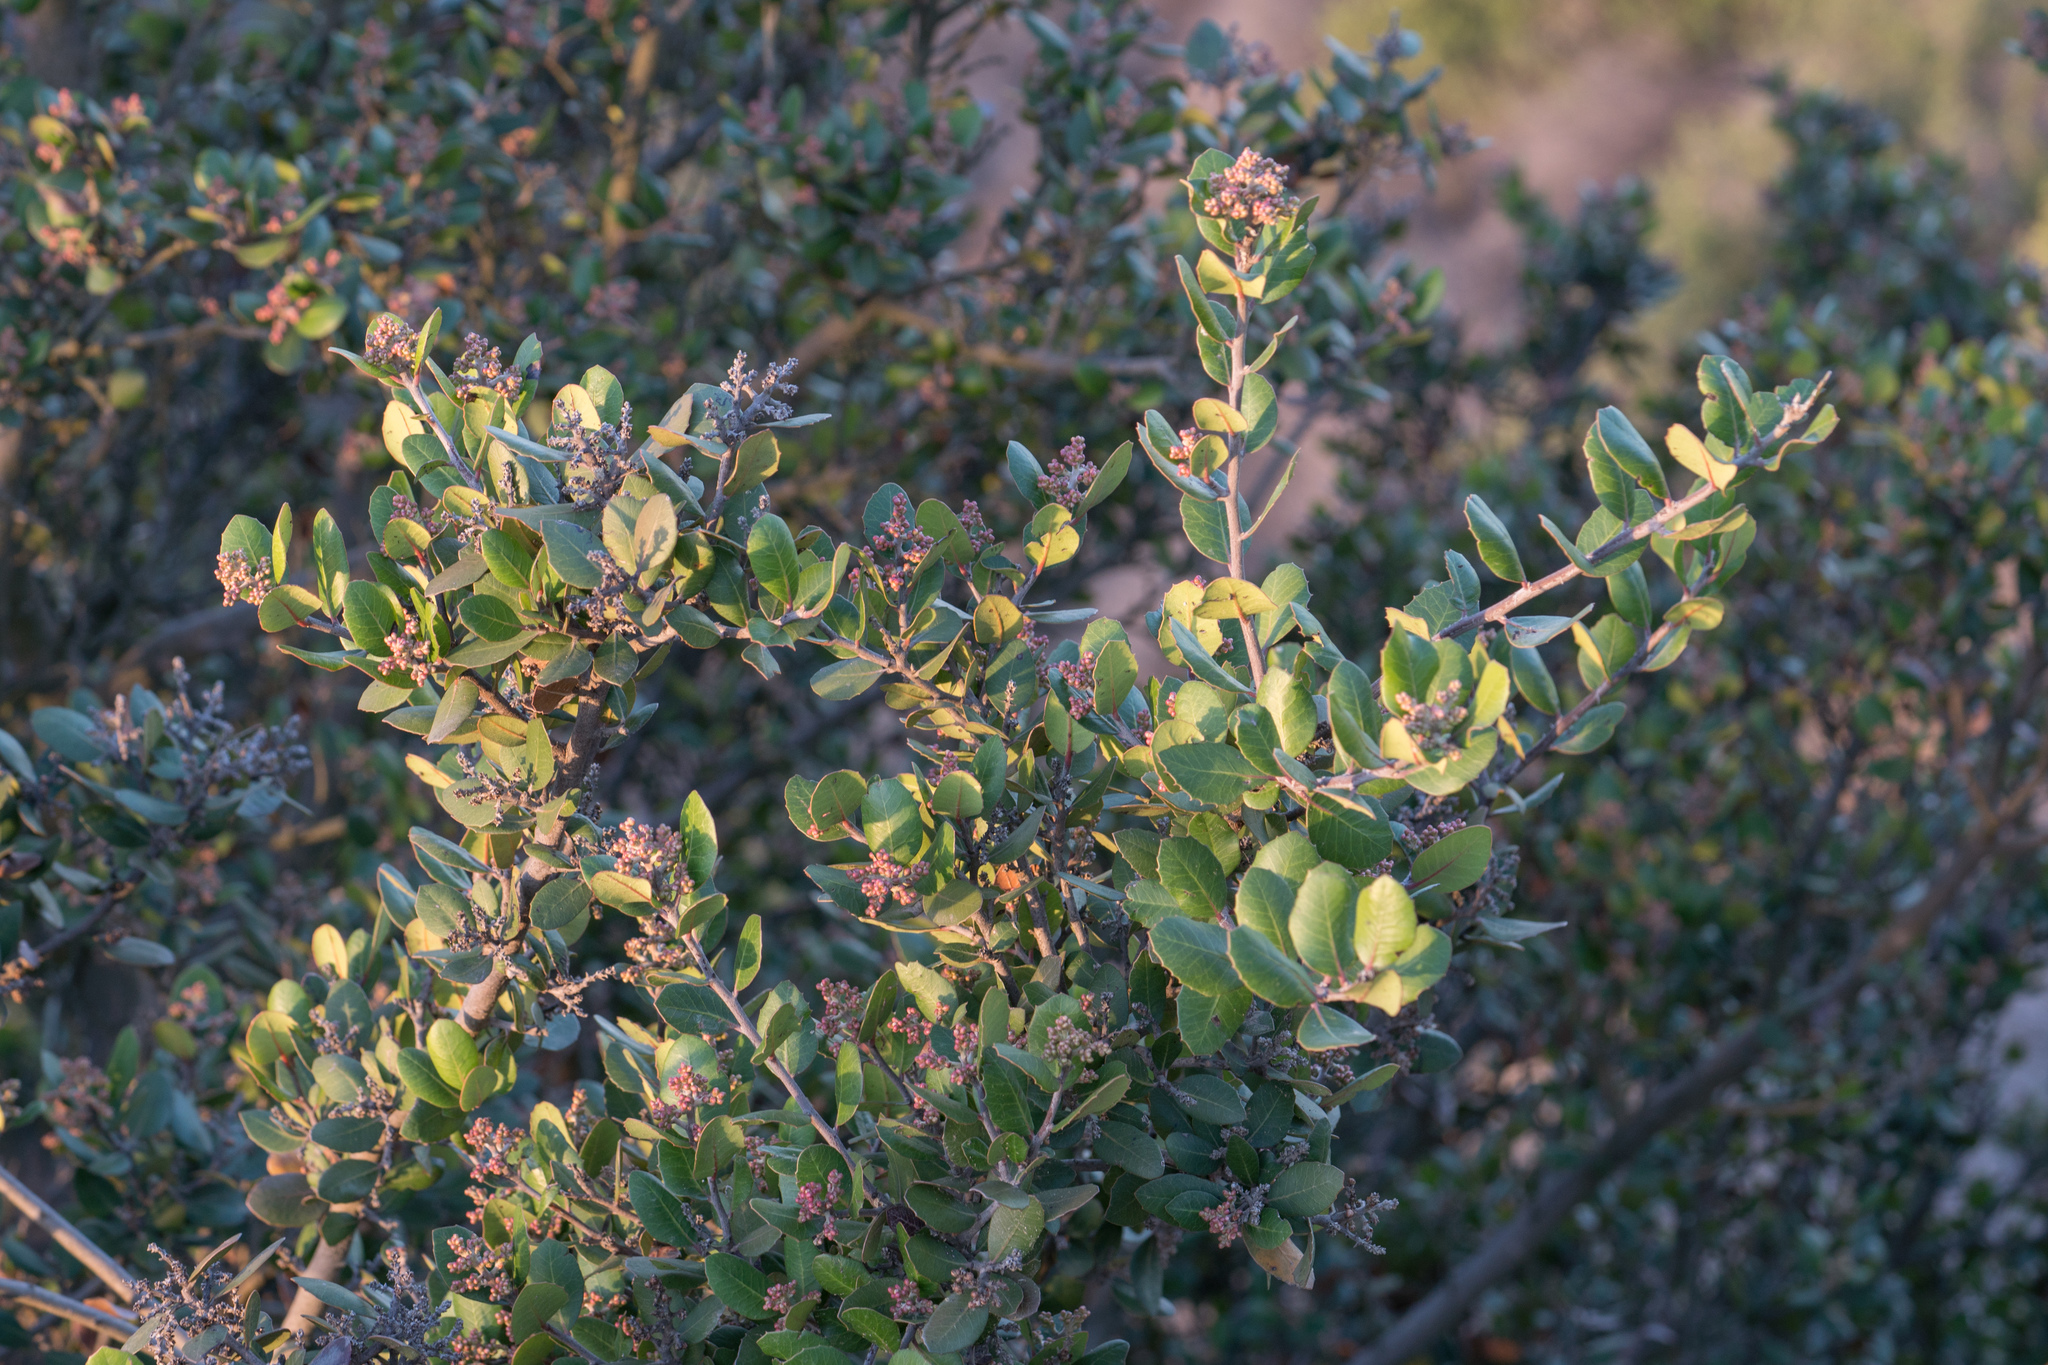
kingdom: Plantae
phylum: Tracheophyta
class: Magnoliopsida
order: Sapindales
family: Anacardiaceae
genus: Rhus
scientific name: Rhus integrifolia
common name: Lemonade sumac
